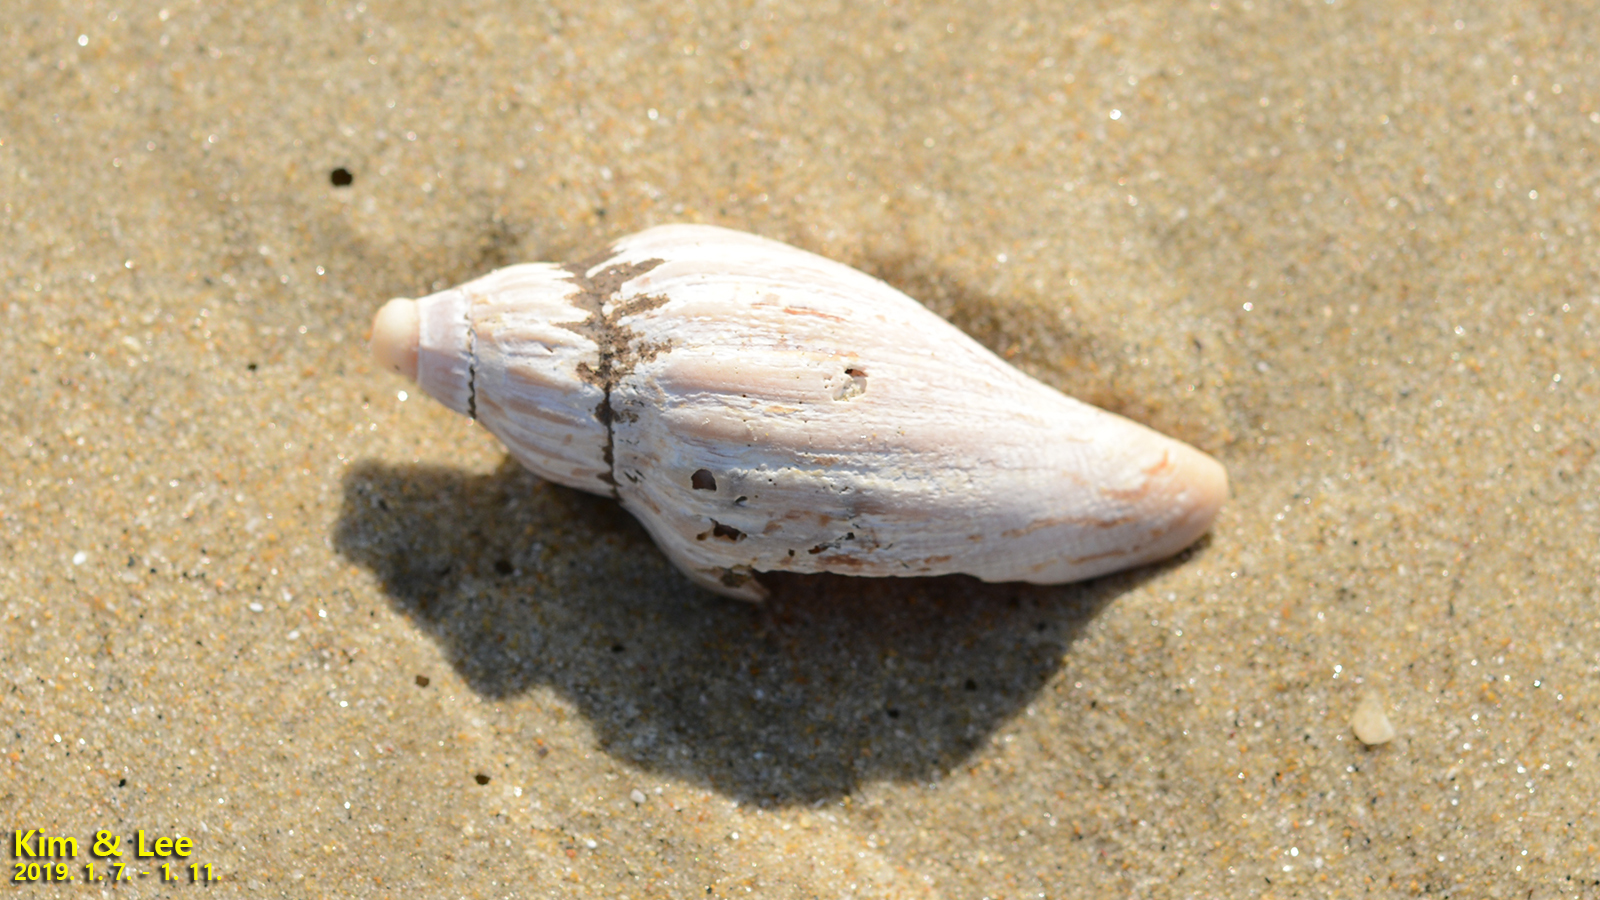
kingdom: Animalia
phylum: Mollusca
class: Gastropoda
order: Neogastropoda
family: Volutidae
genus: Saotomea
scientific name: Saotomea solida
